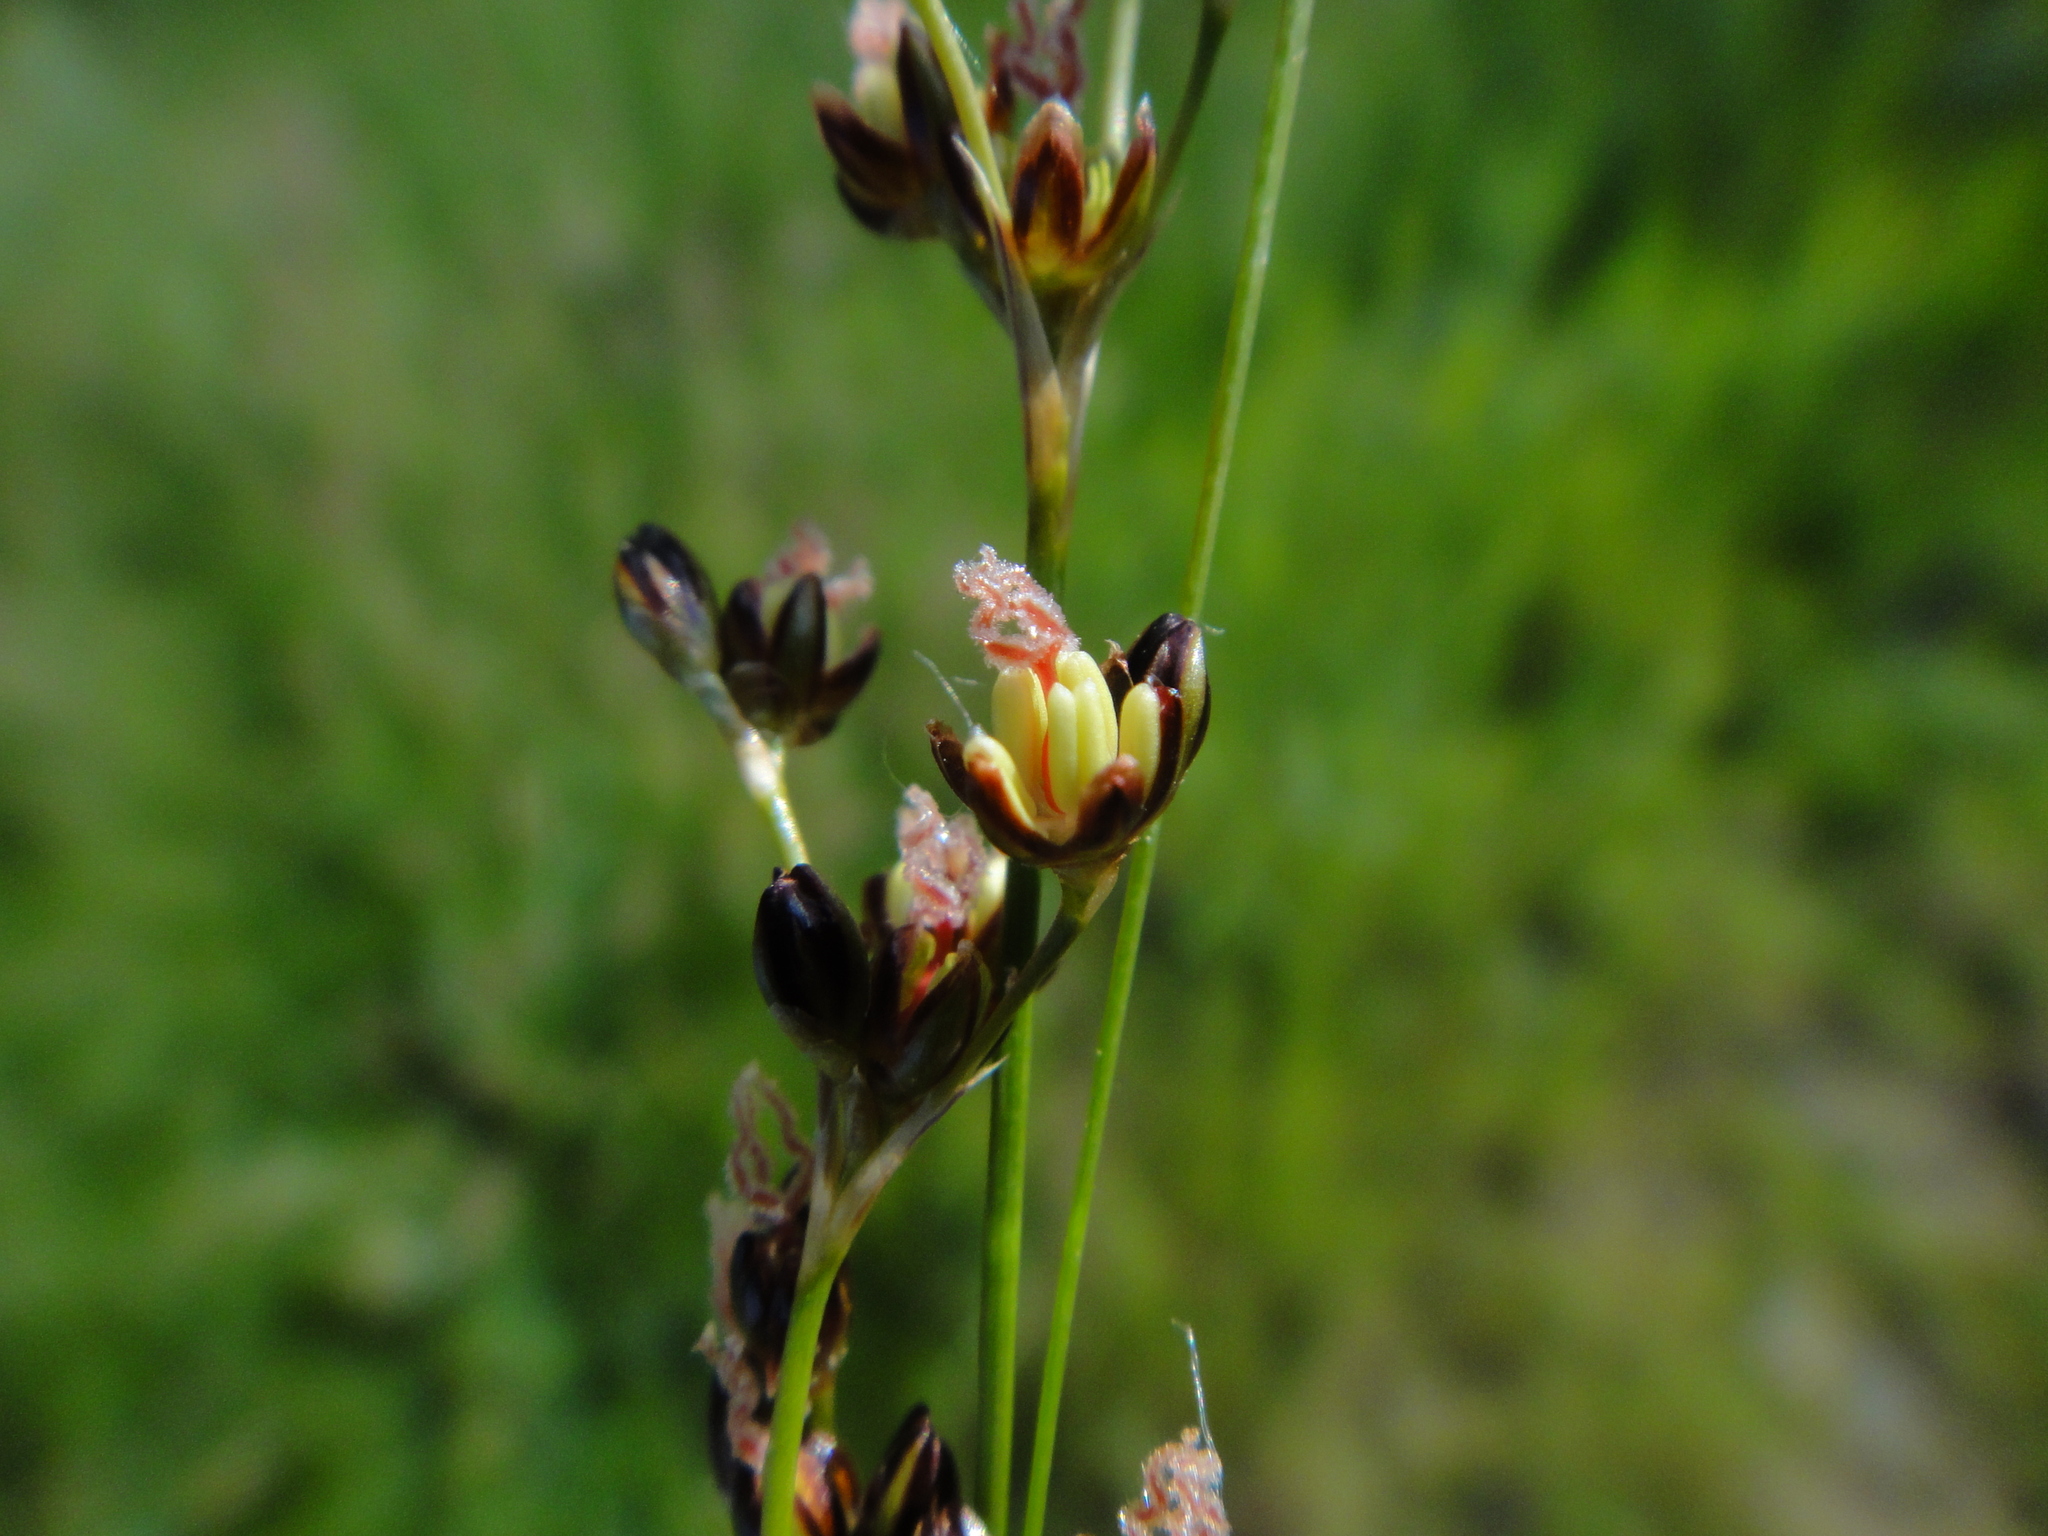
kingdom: Plantae
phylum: Tracheophyta
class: Liliopsida
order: Poales
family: Juncaceae
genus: Juncus
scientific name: Juncus gerardi
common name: Saltmarsh rush
